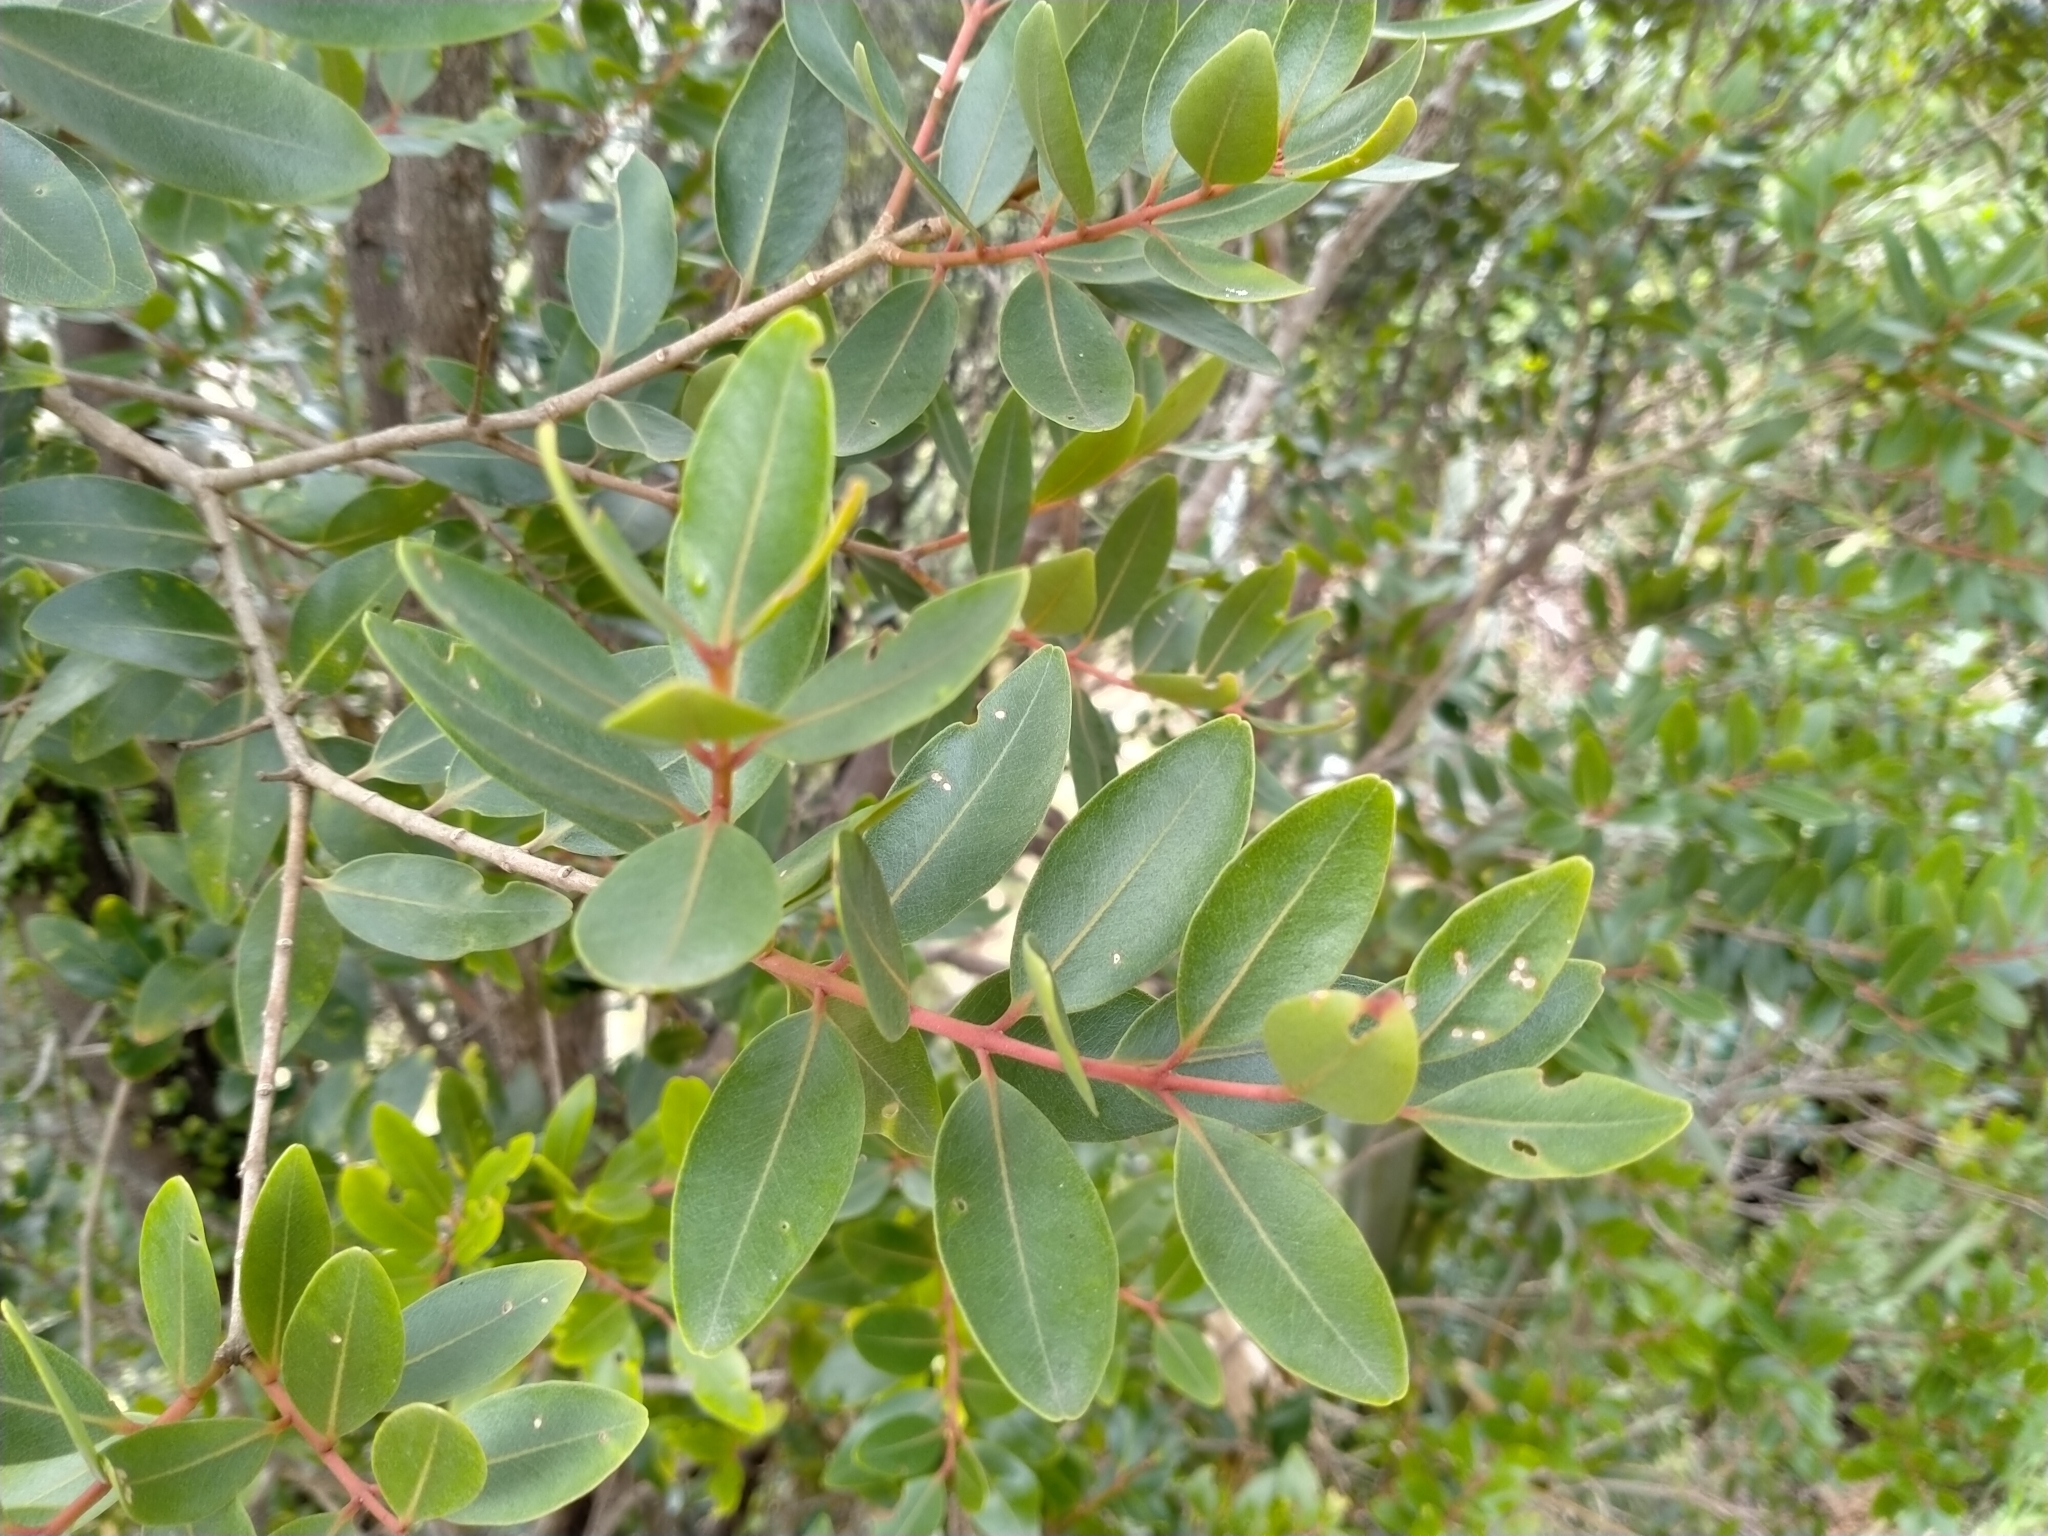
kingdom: Plantae
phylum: Tracheophyta
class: Magnoliopsida
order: Myrtales
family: Myrtaceae
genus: Metrosideros
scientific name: Metrosideros robusta
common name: Northern rata
